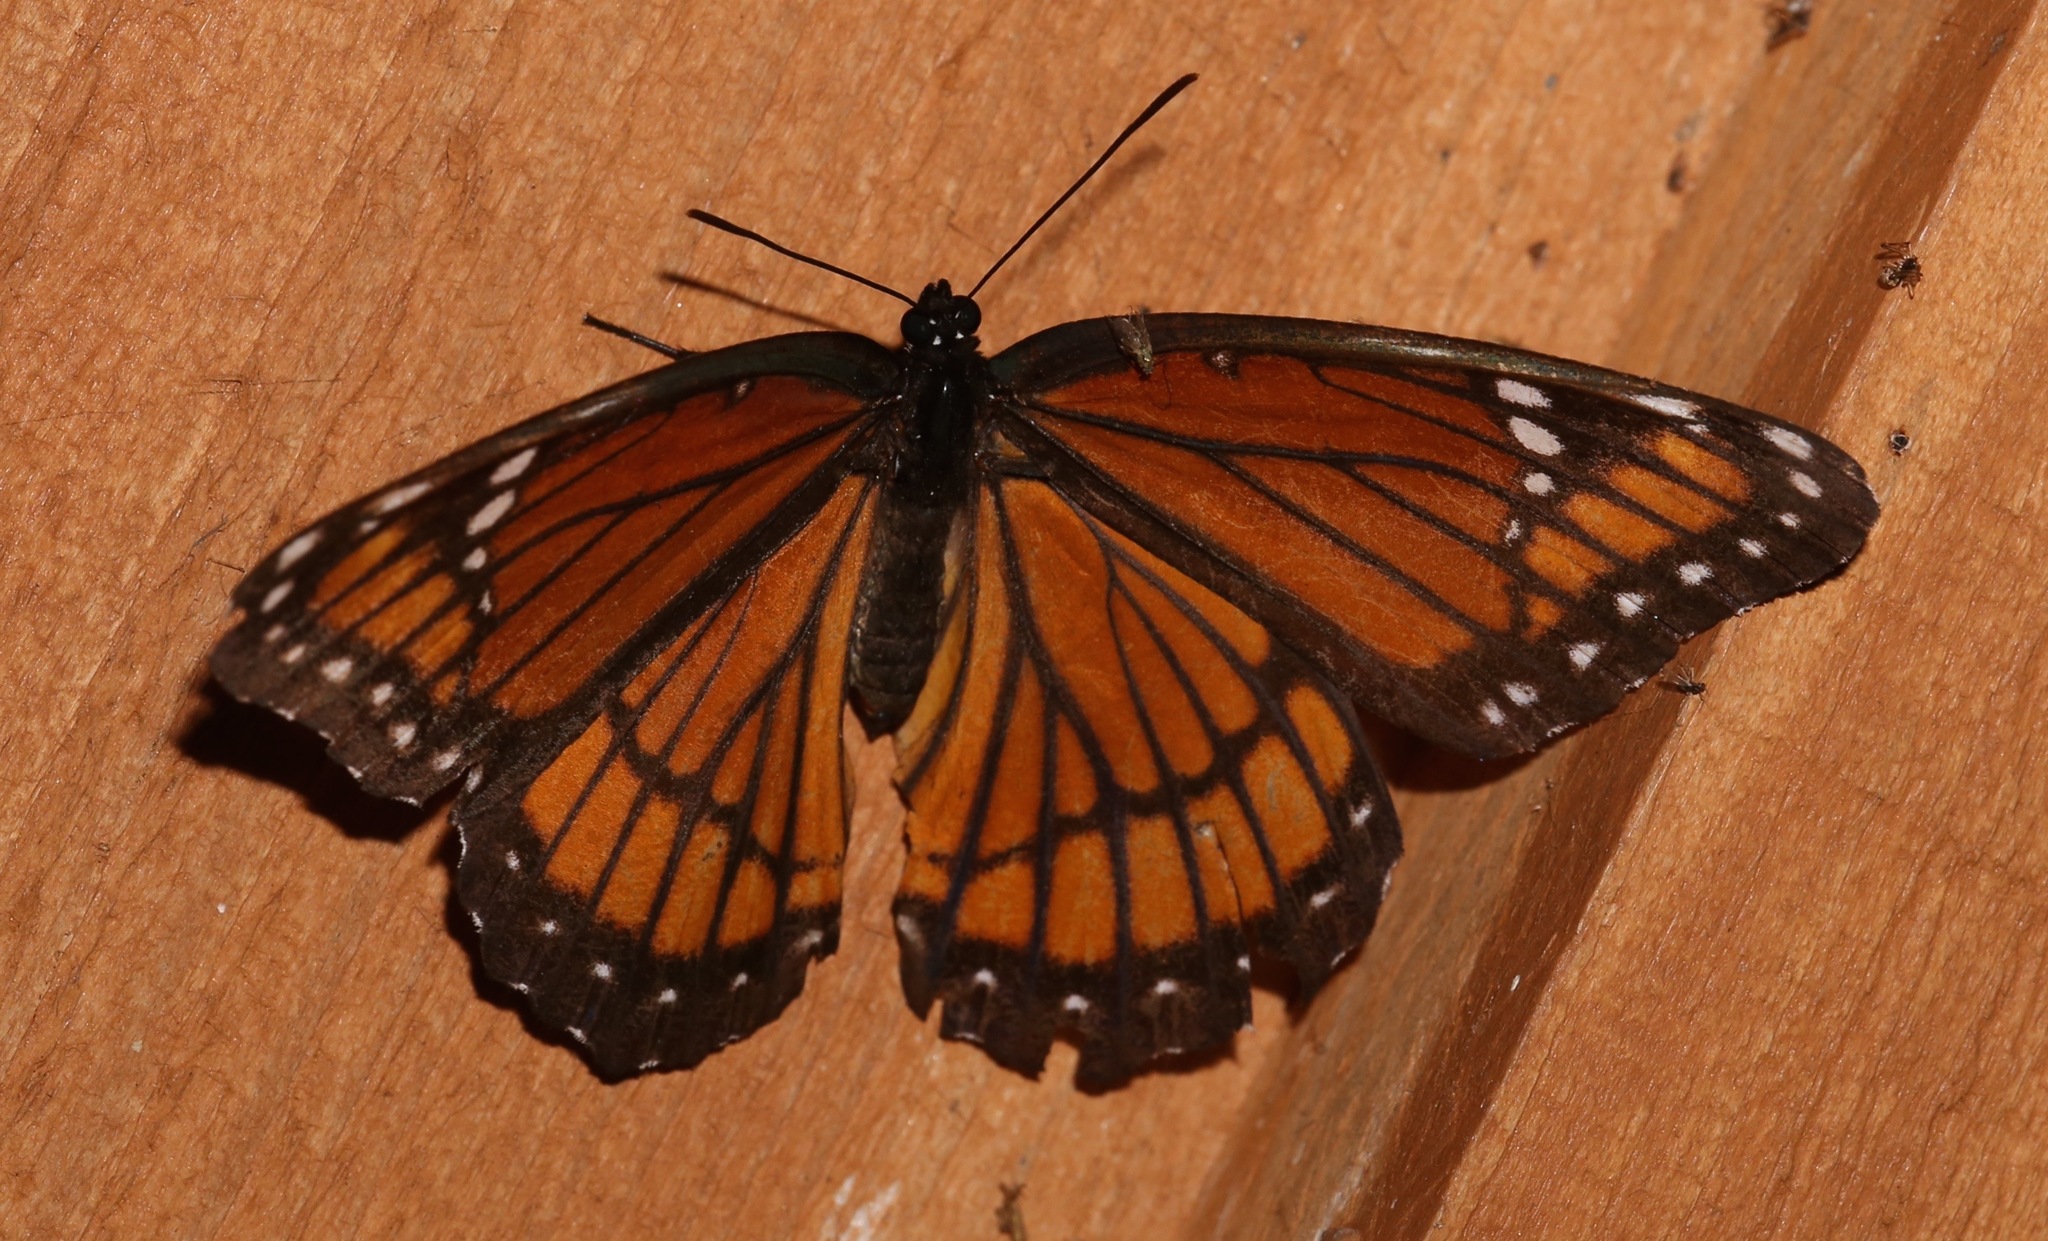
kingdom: Animalia
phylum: Arthropoda
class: Insecta
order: Lepidoptera
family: Nymphalidae
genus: Limenitis
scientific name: Limenitis archippus
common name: Viceroy
